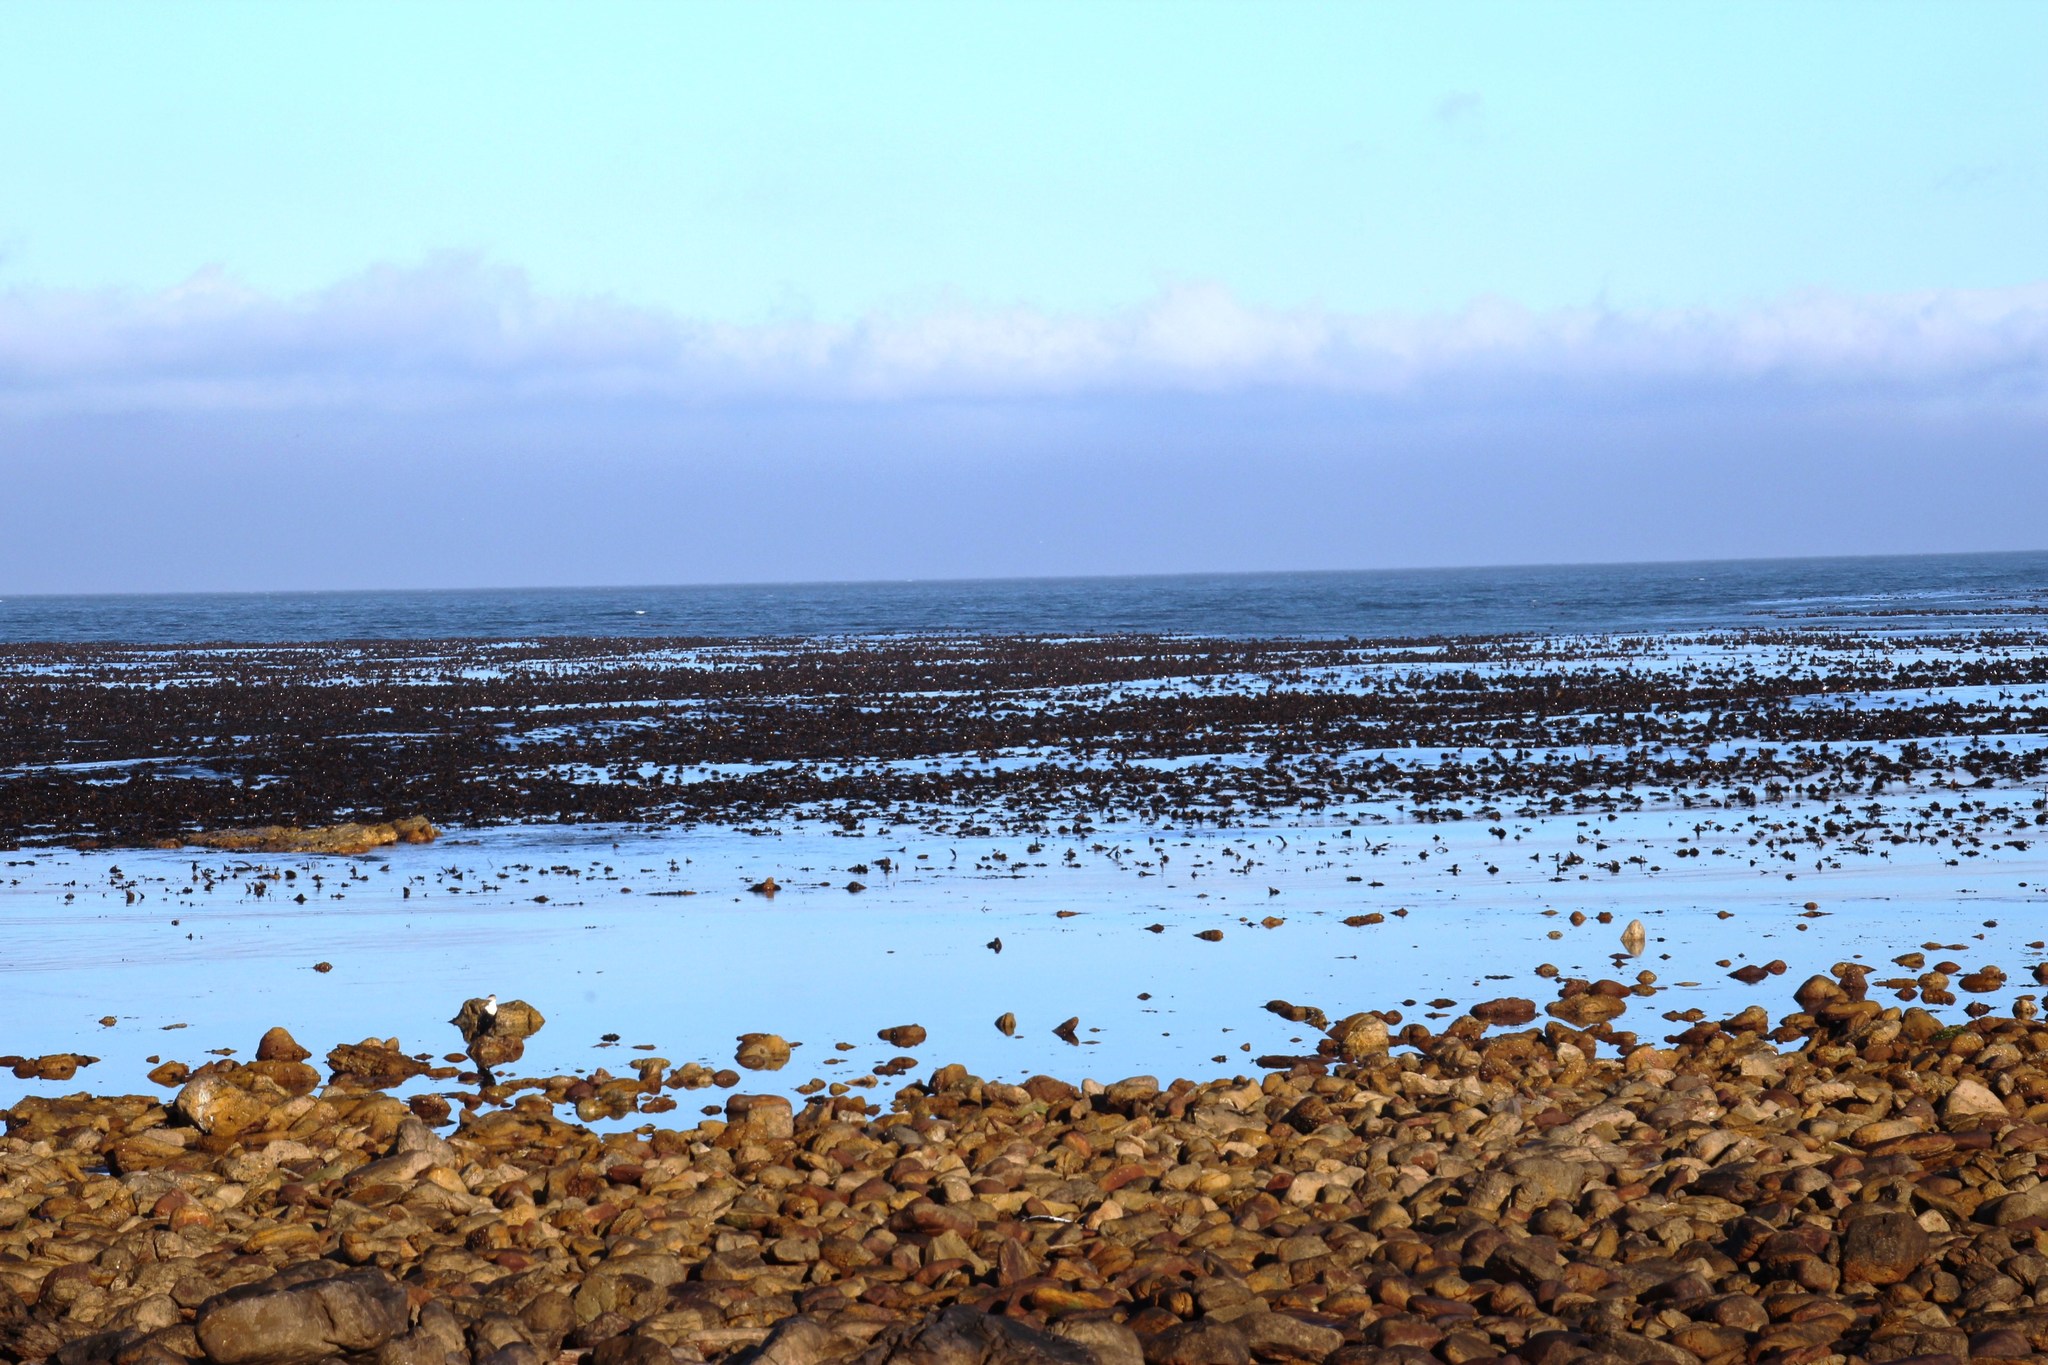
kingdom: Chromista
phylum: Ochrophyta
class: Phaeophyceae
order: Laminariales
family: Lessoniaceae
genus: Ecklonia
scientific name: Ecklonia
